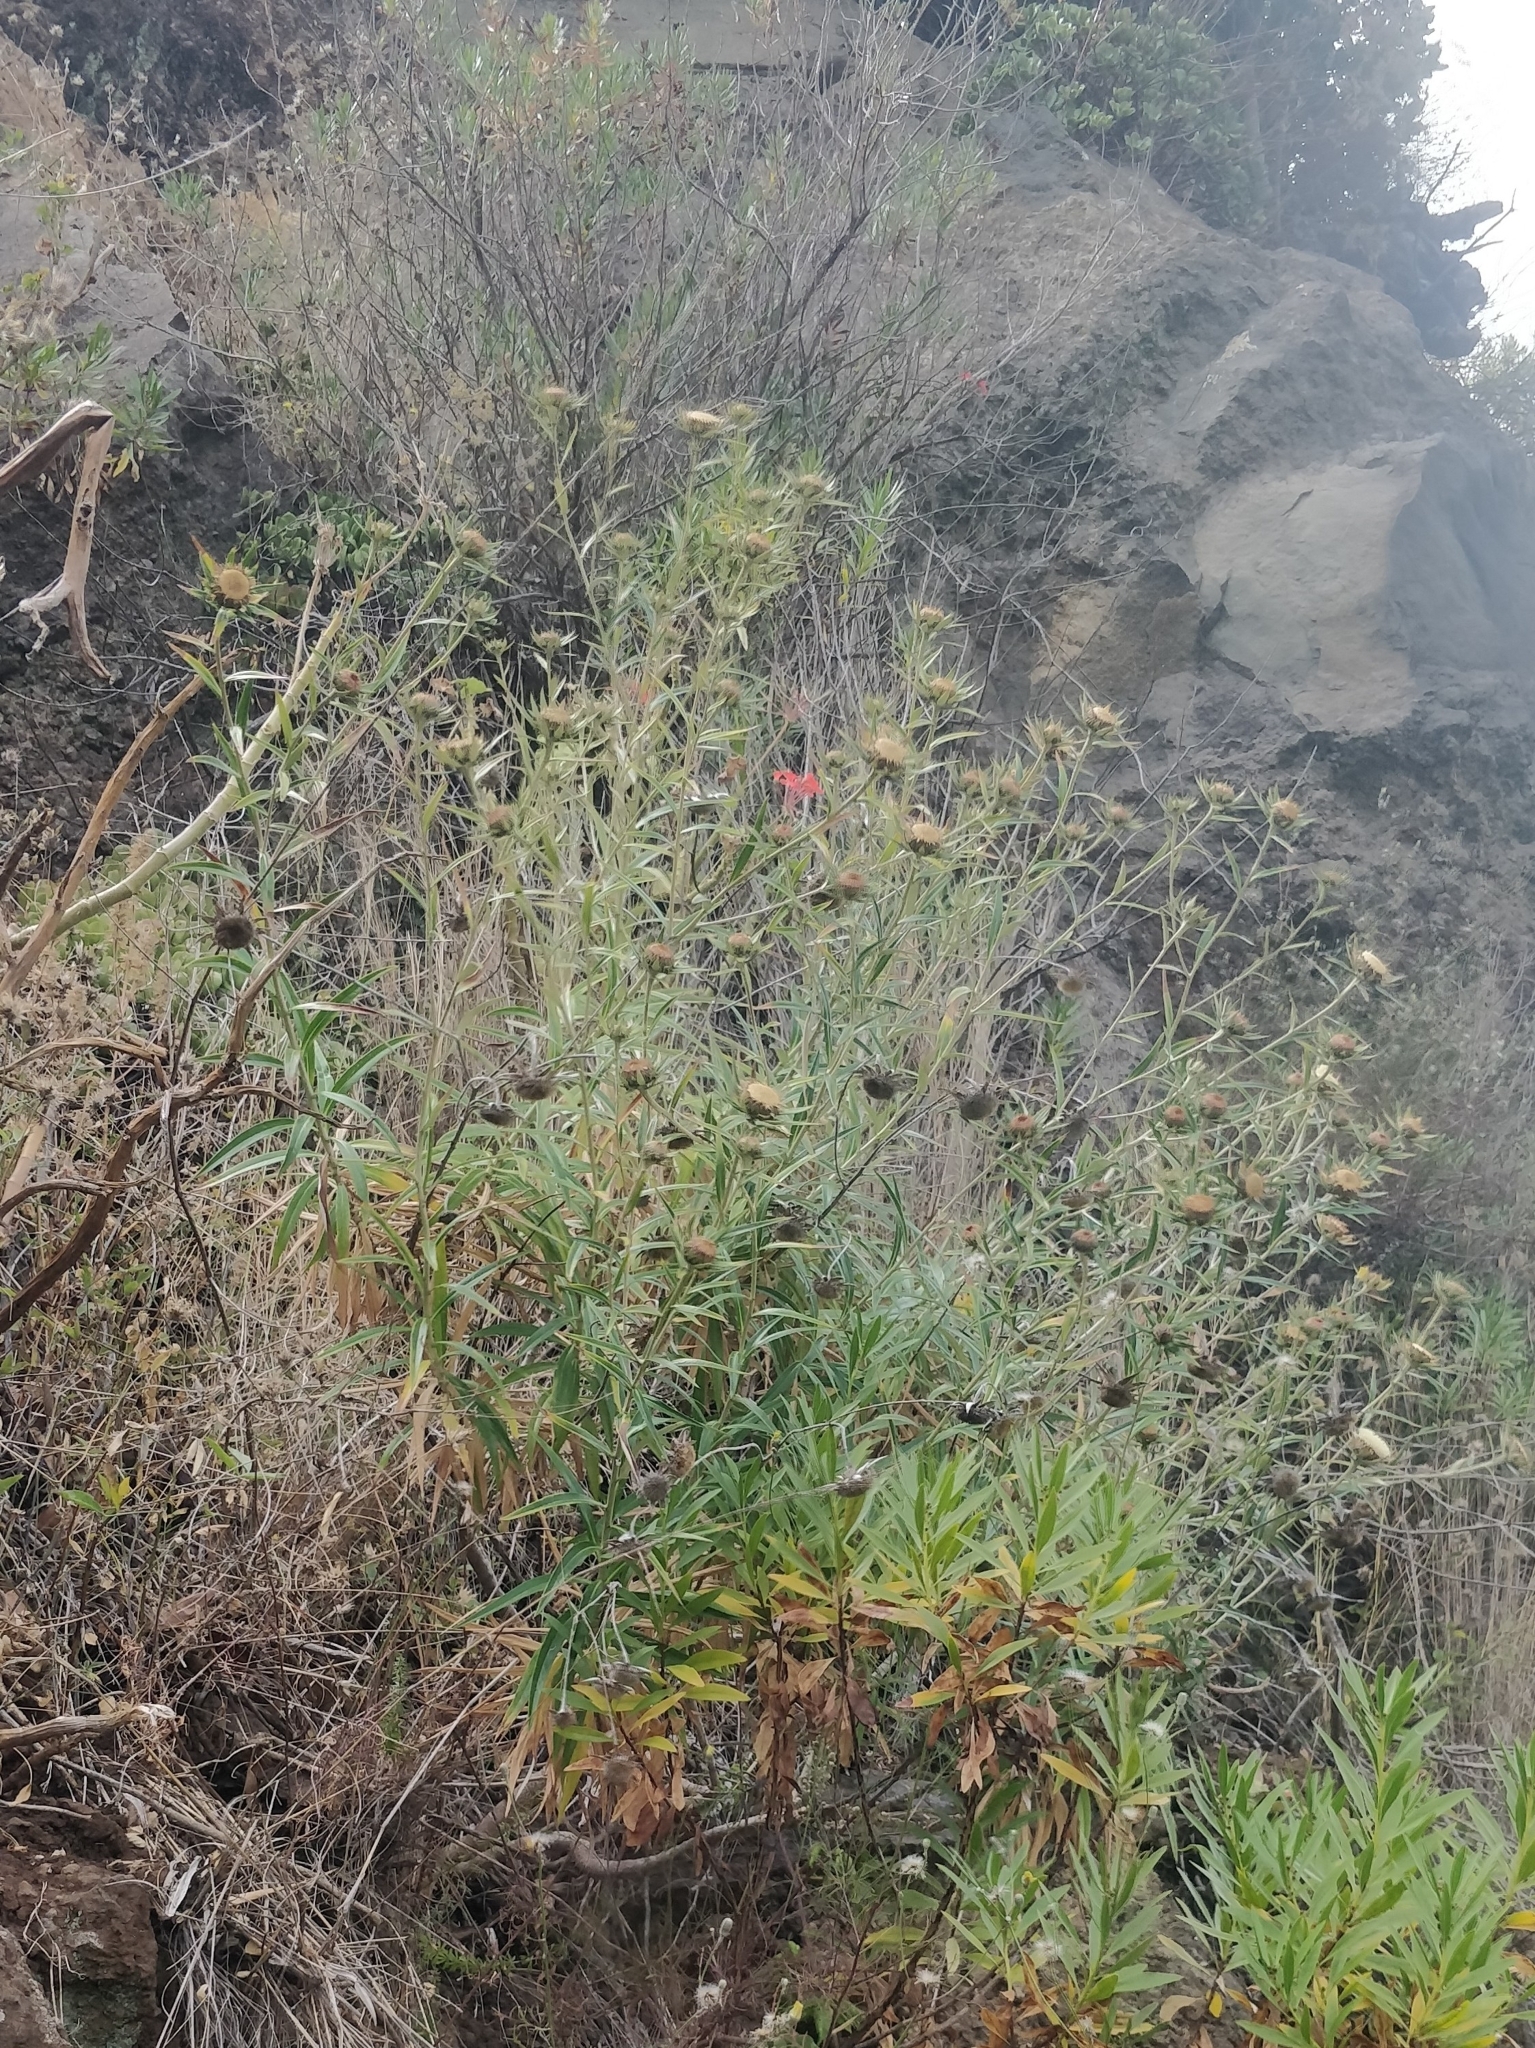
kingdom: Plantae
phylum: Tracheophyta
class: Magnoliopsida
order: Asterales
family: Asteraceae
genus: Carlina
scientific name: Carlina salicifolia
